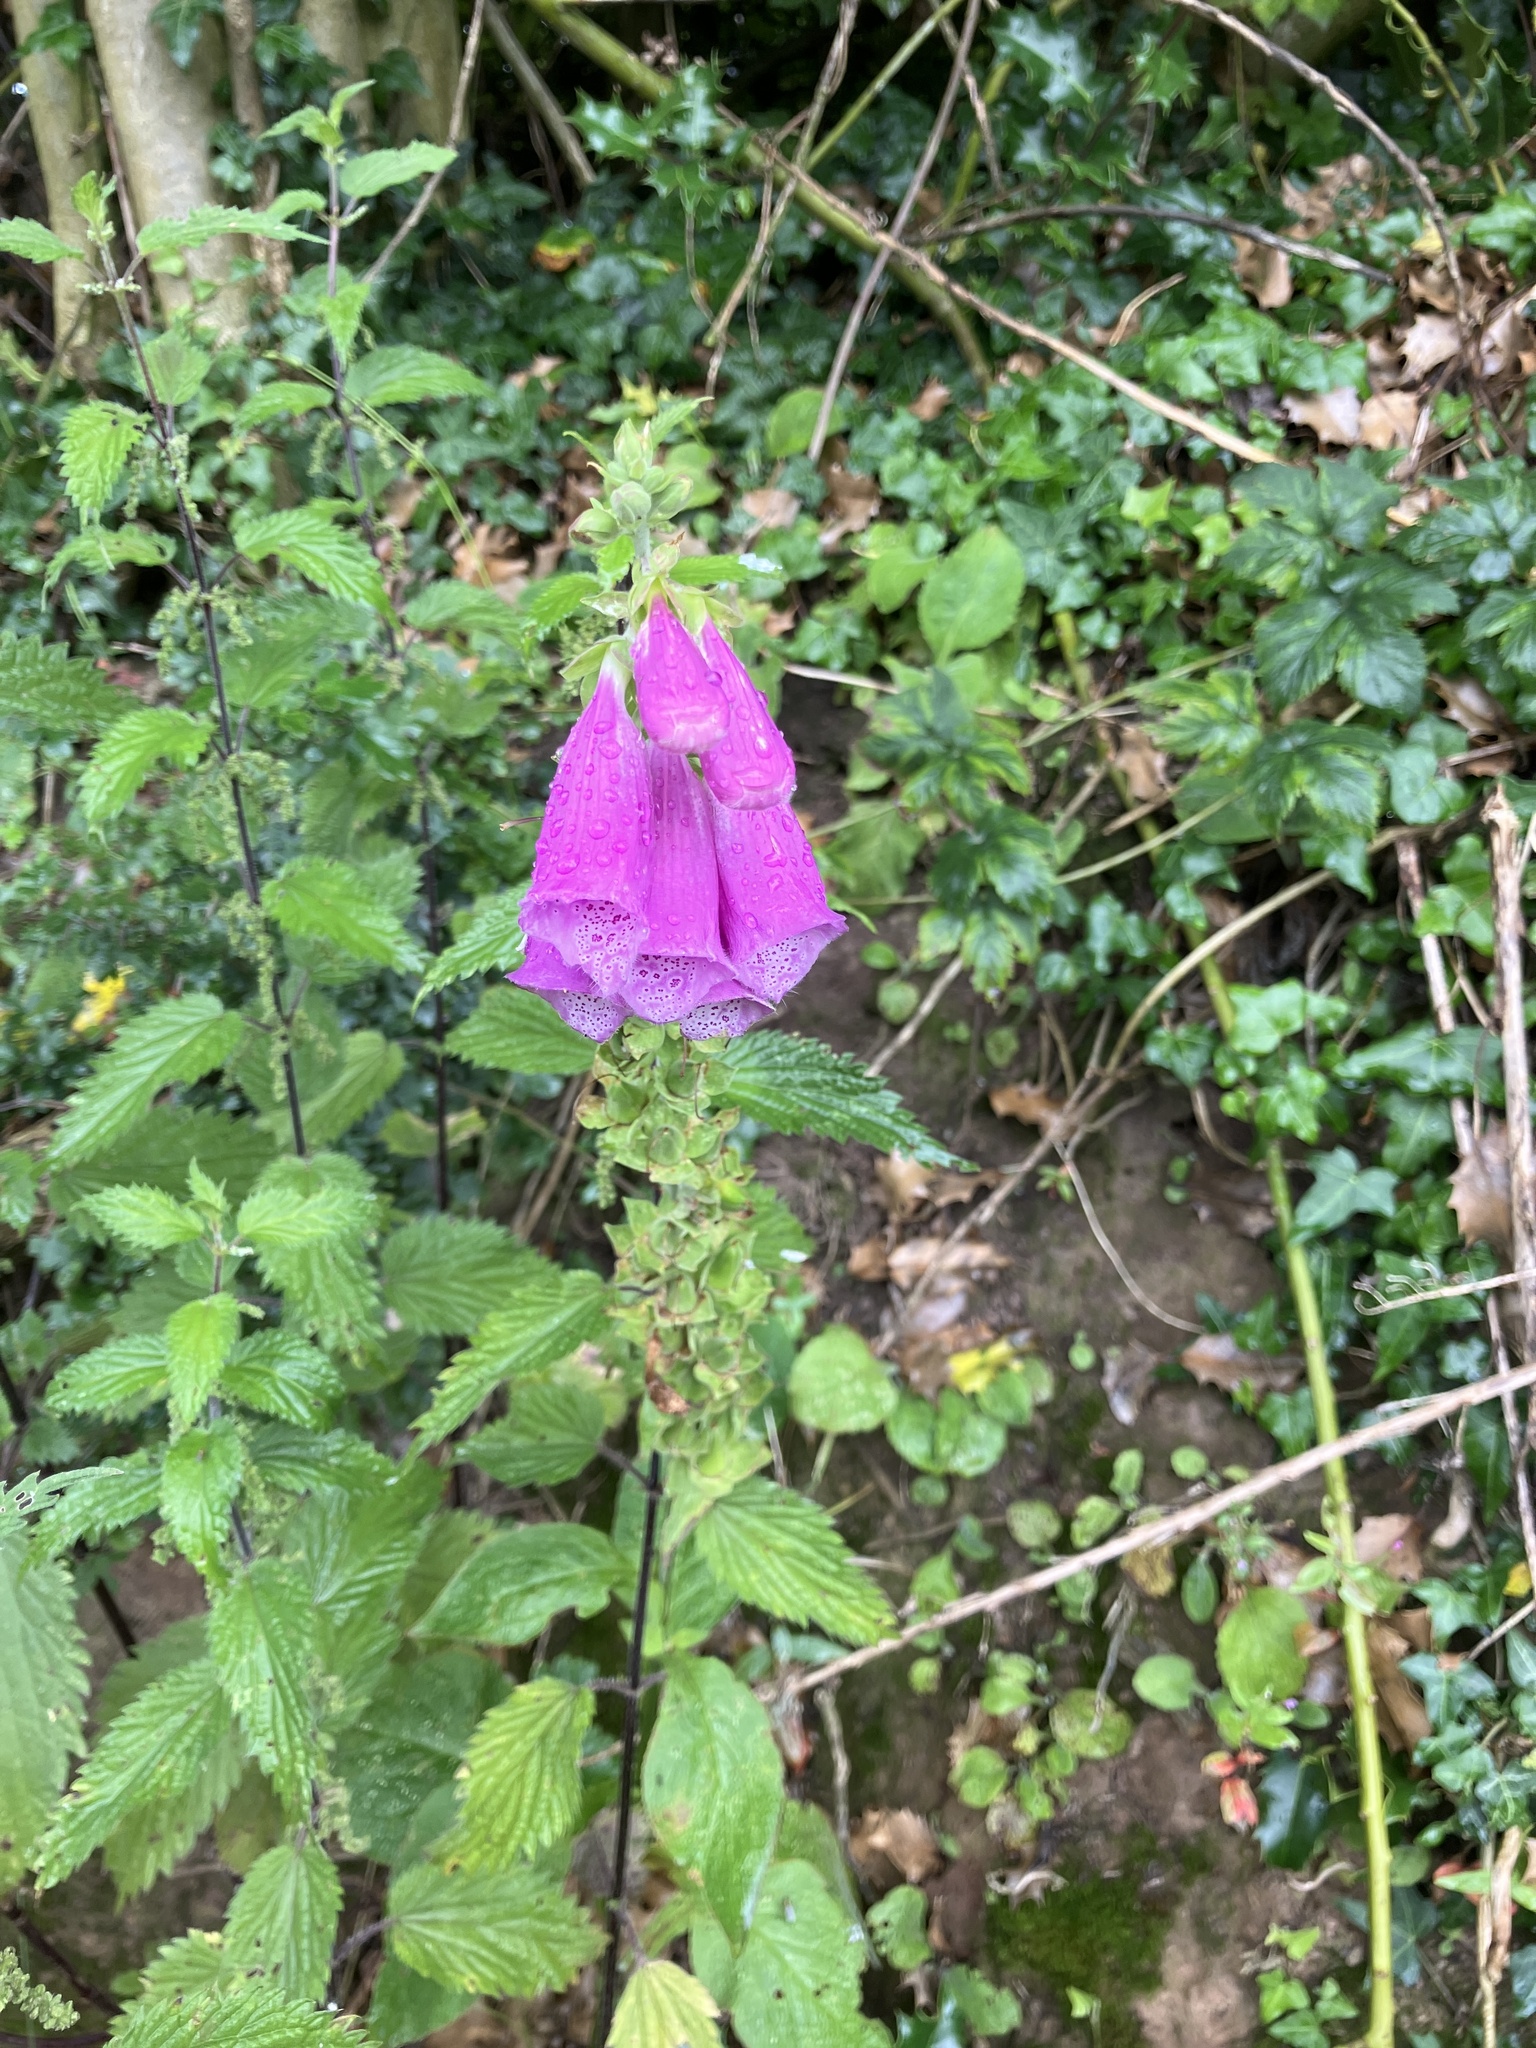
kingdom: Plantae
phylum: Tracheophyta
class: Magnoliopsida
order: Lamiales
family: Plantaginaceae
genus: Digitalis
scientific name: Digitalis purpurea
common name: Foxglove
